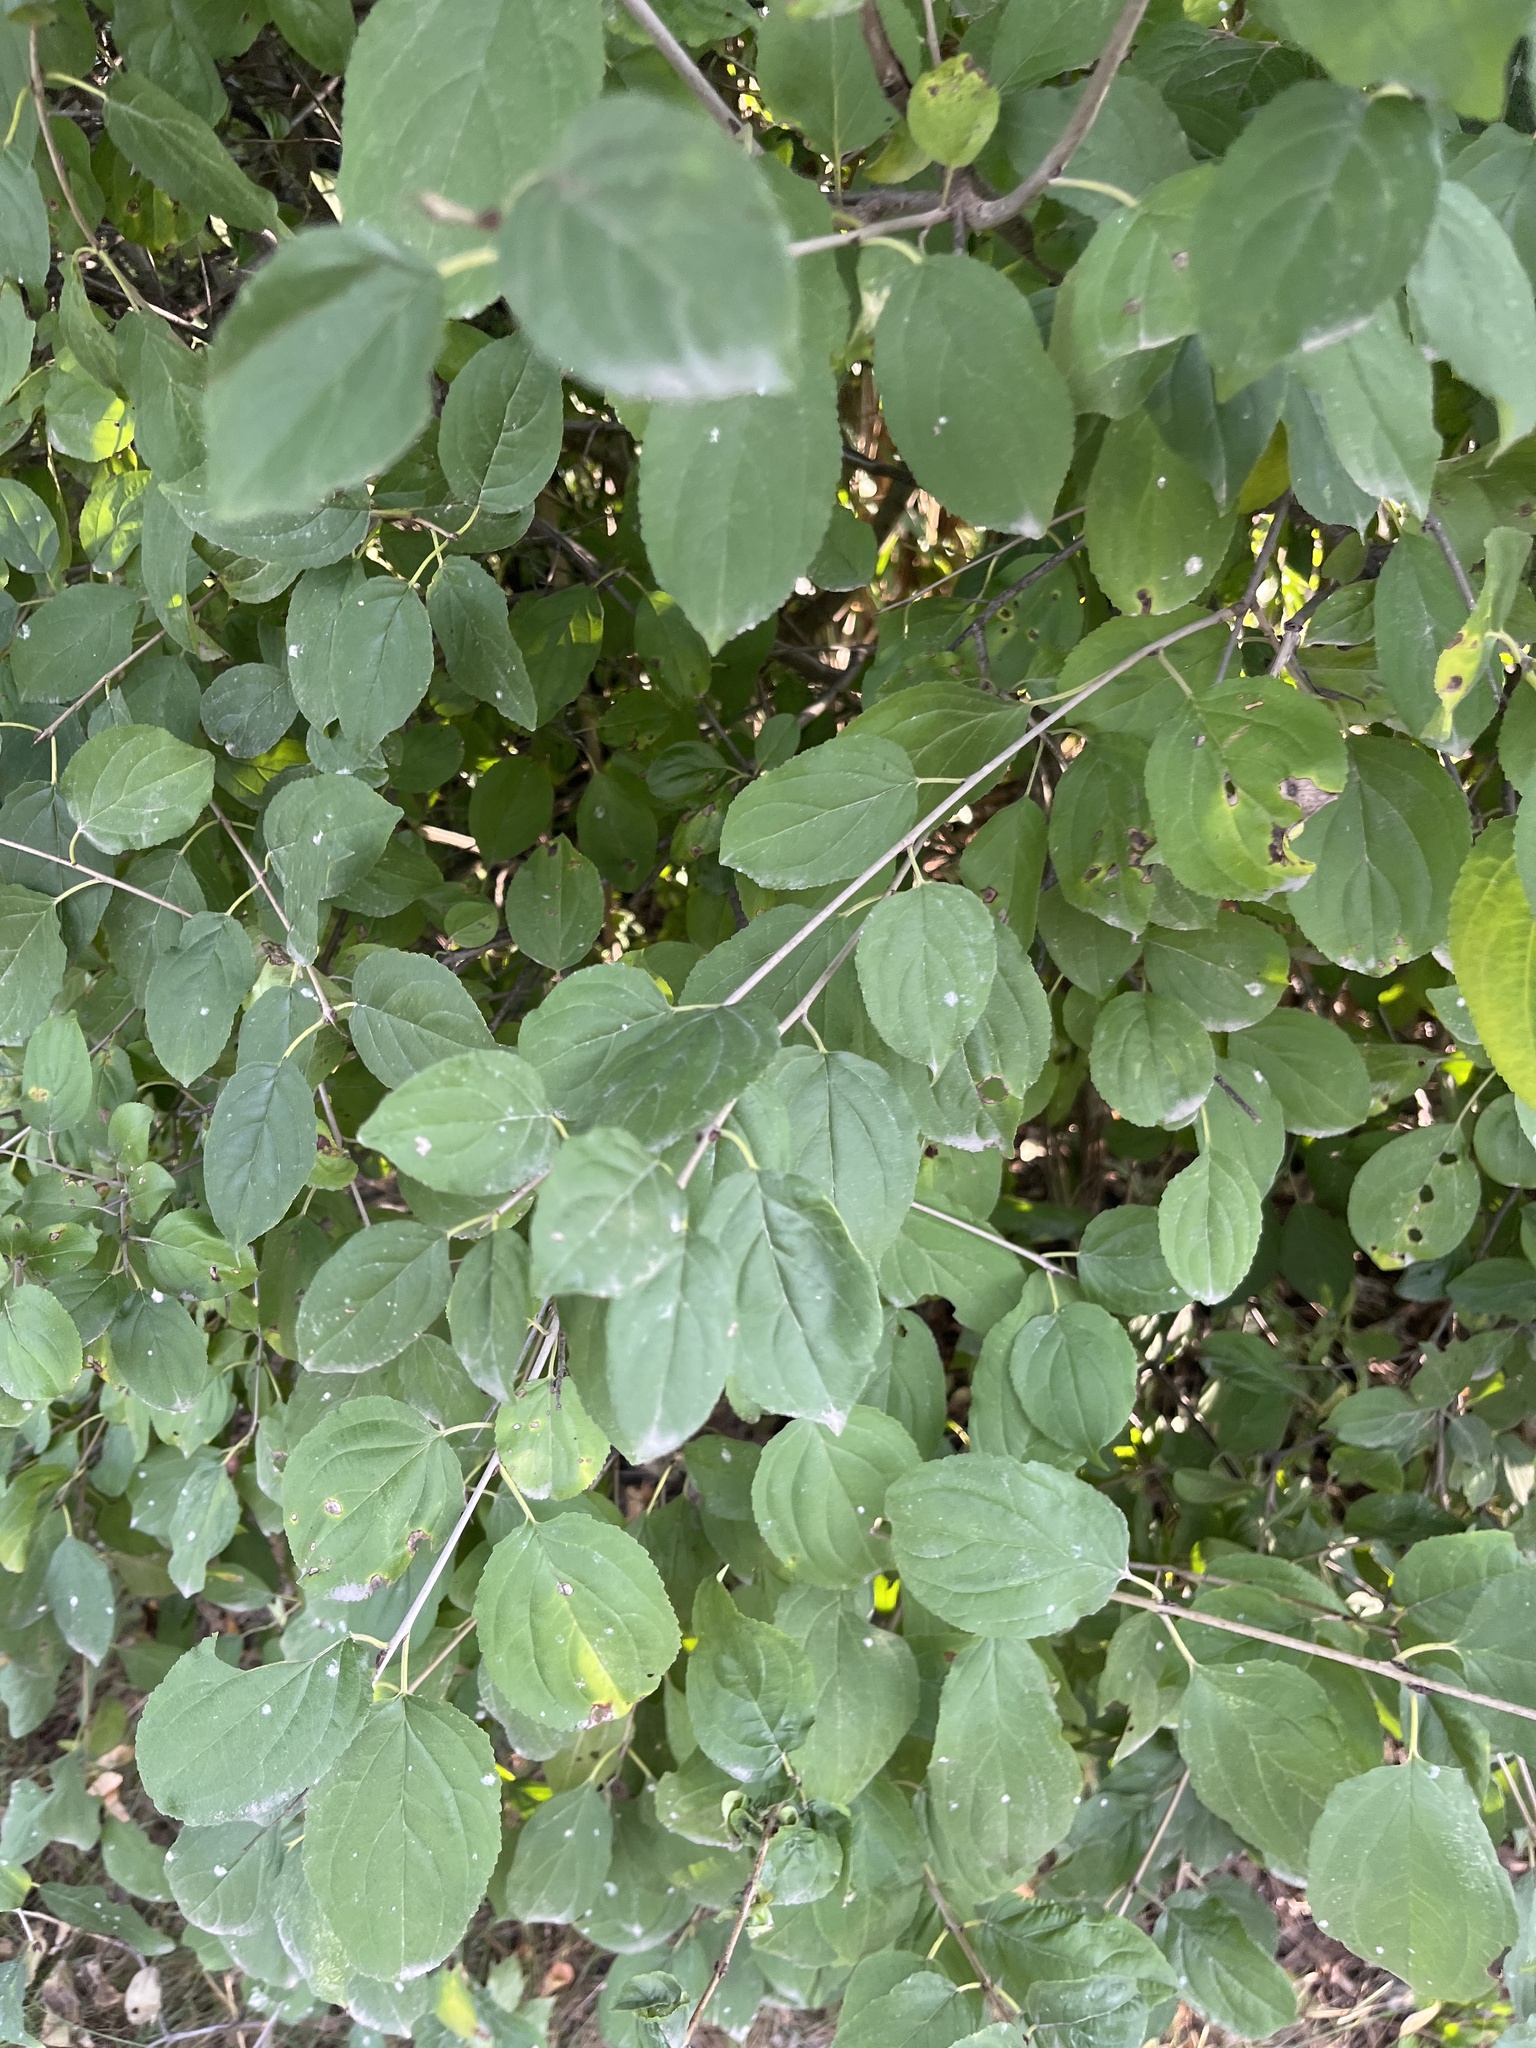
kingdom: Plantae
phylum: Tracheophyta
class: Magnoliopsida
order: Rosales
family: Rhamnaceae
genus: Rhamnus
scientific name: Rhamnus cathartica
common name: Common buckthorn
